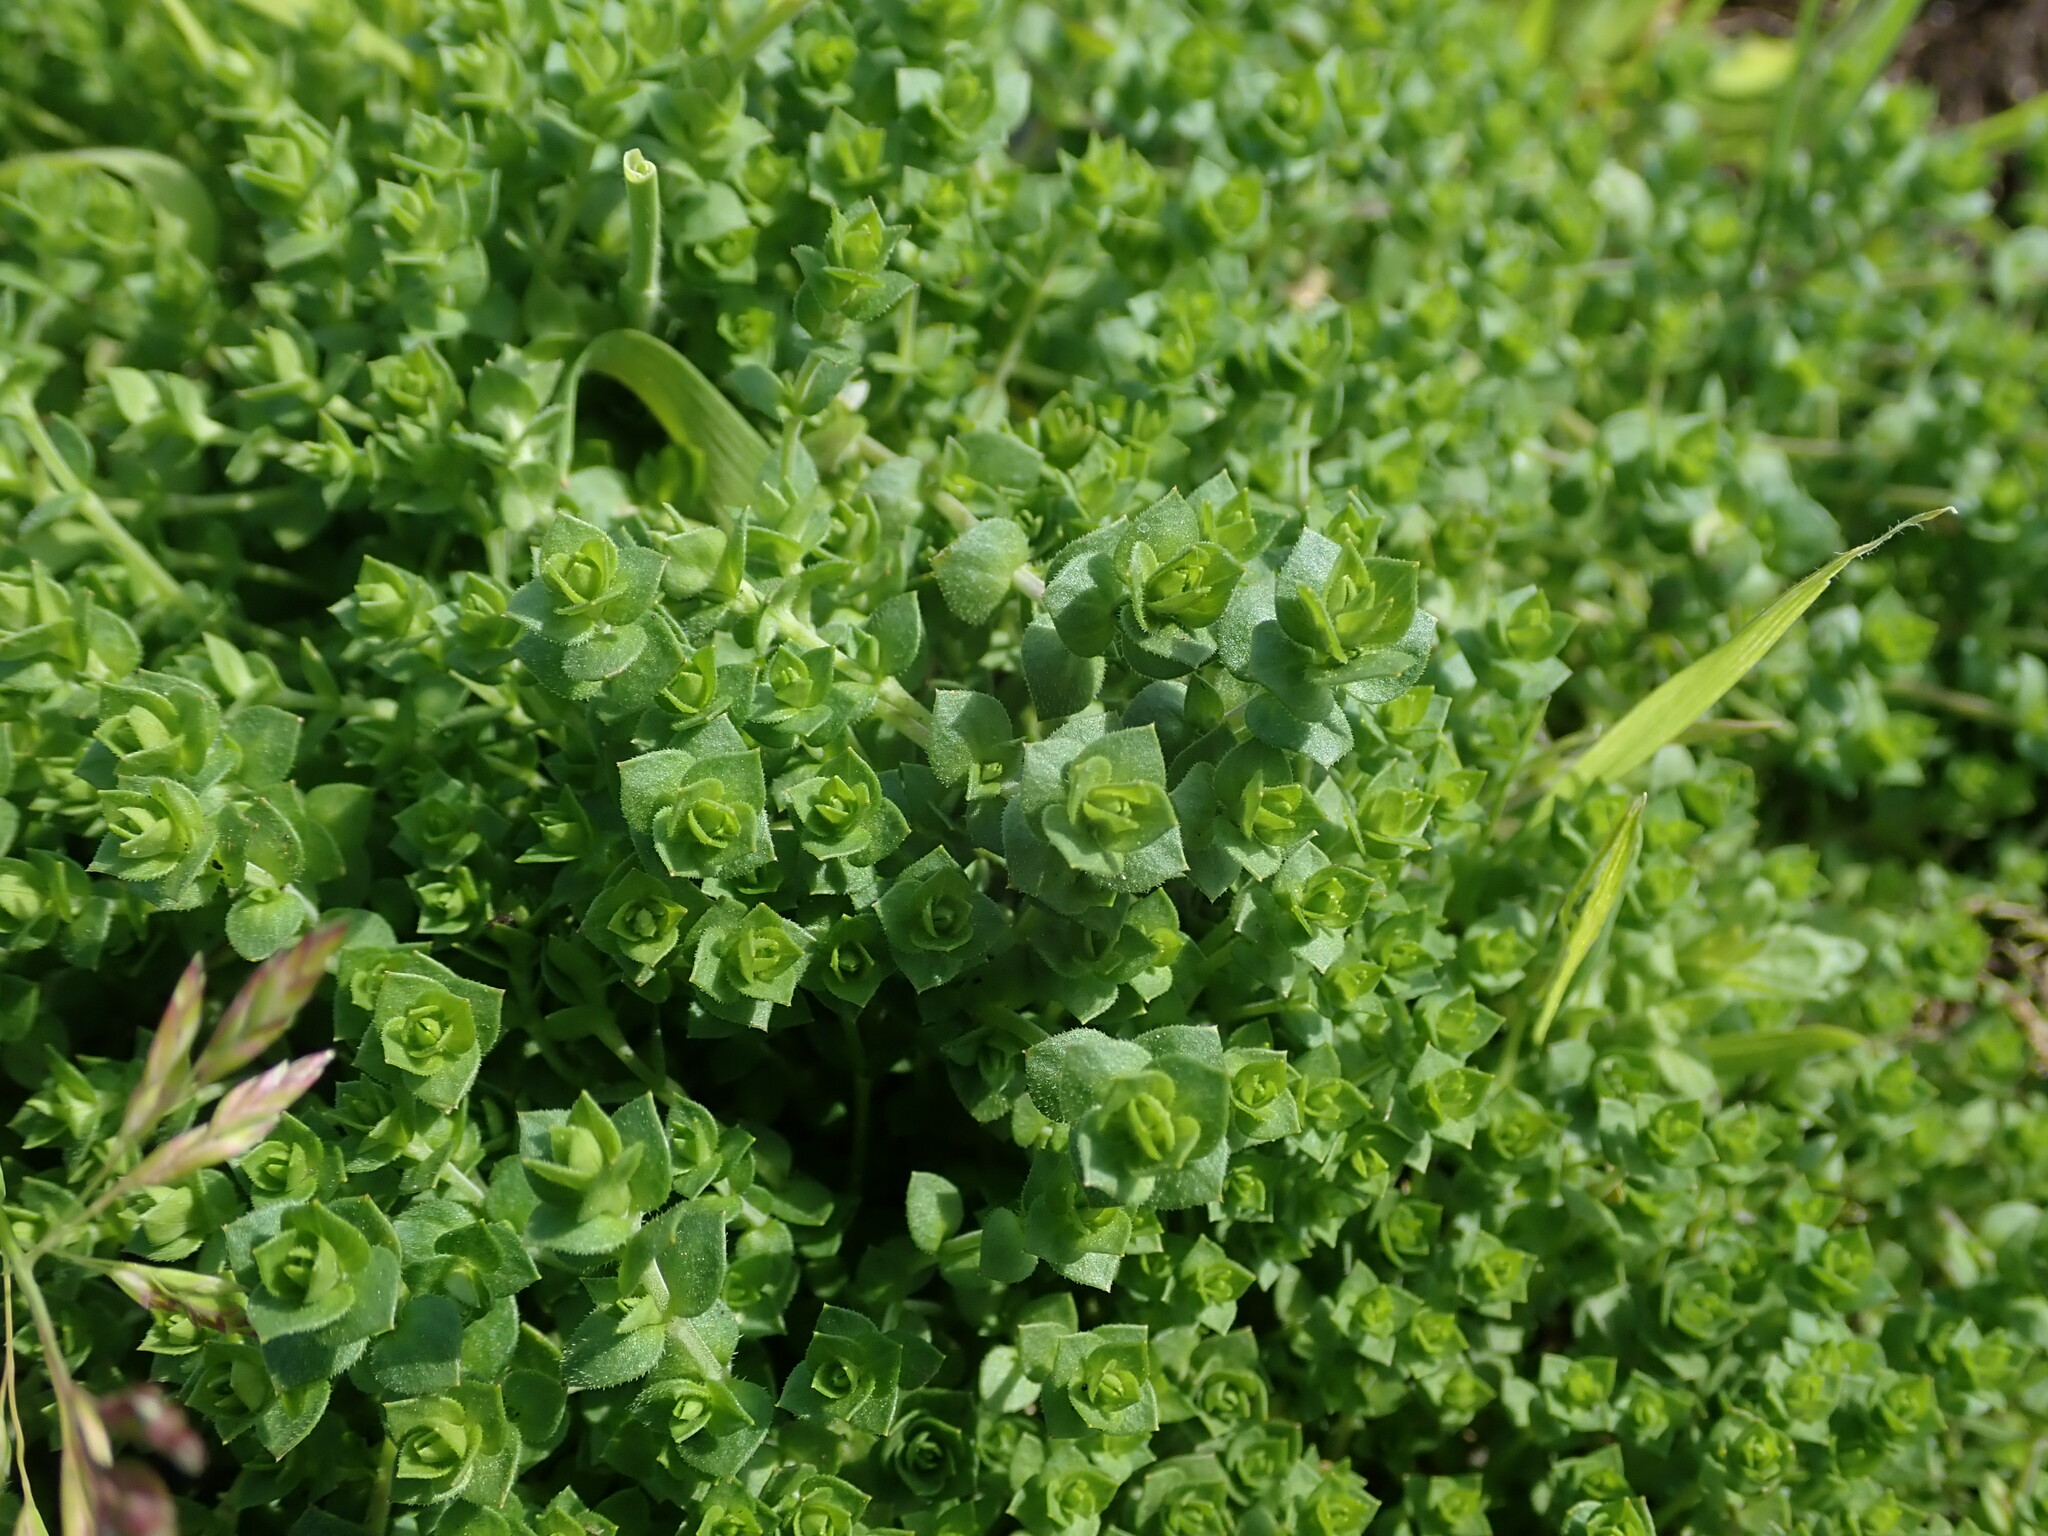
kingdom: Plantae
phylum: Tracheophyta
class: Magnoliopsida
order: Caryophyllales
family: Caryophyllaceae
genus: Arenaria
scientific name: Arenaria serpyllifolia
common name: Thyme-leaved sandwort
